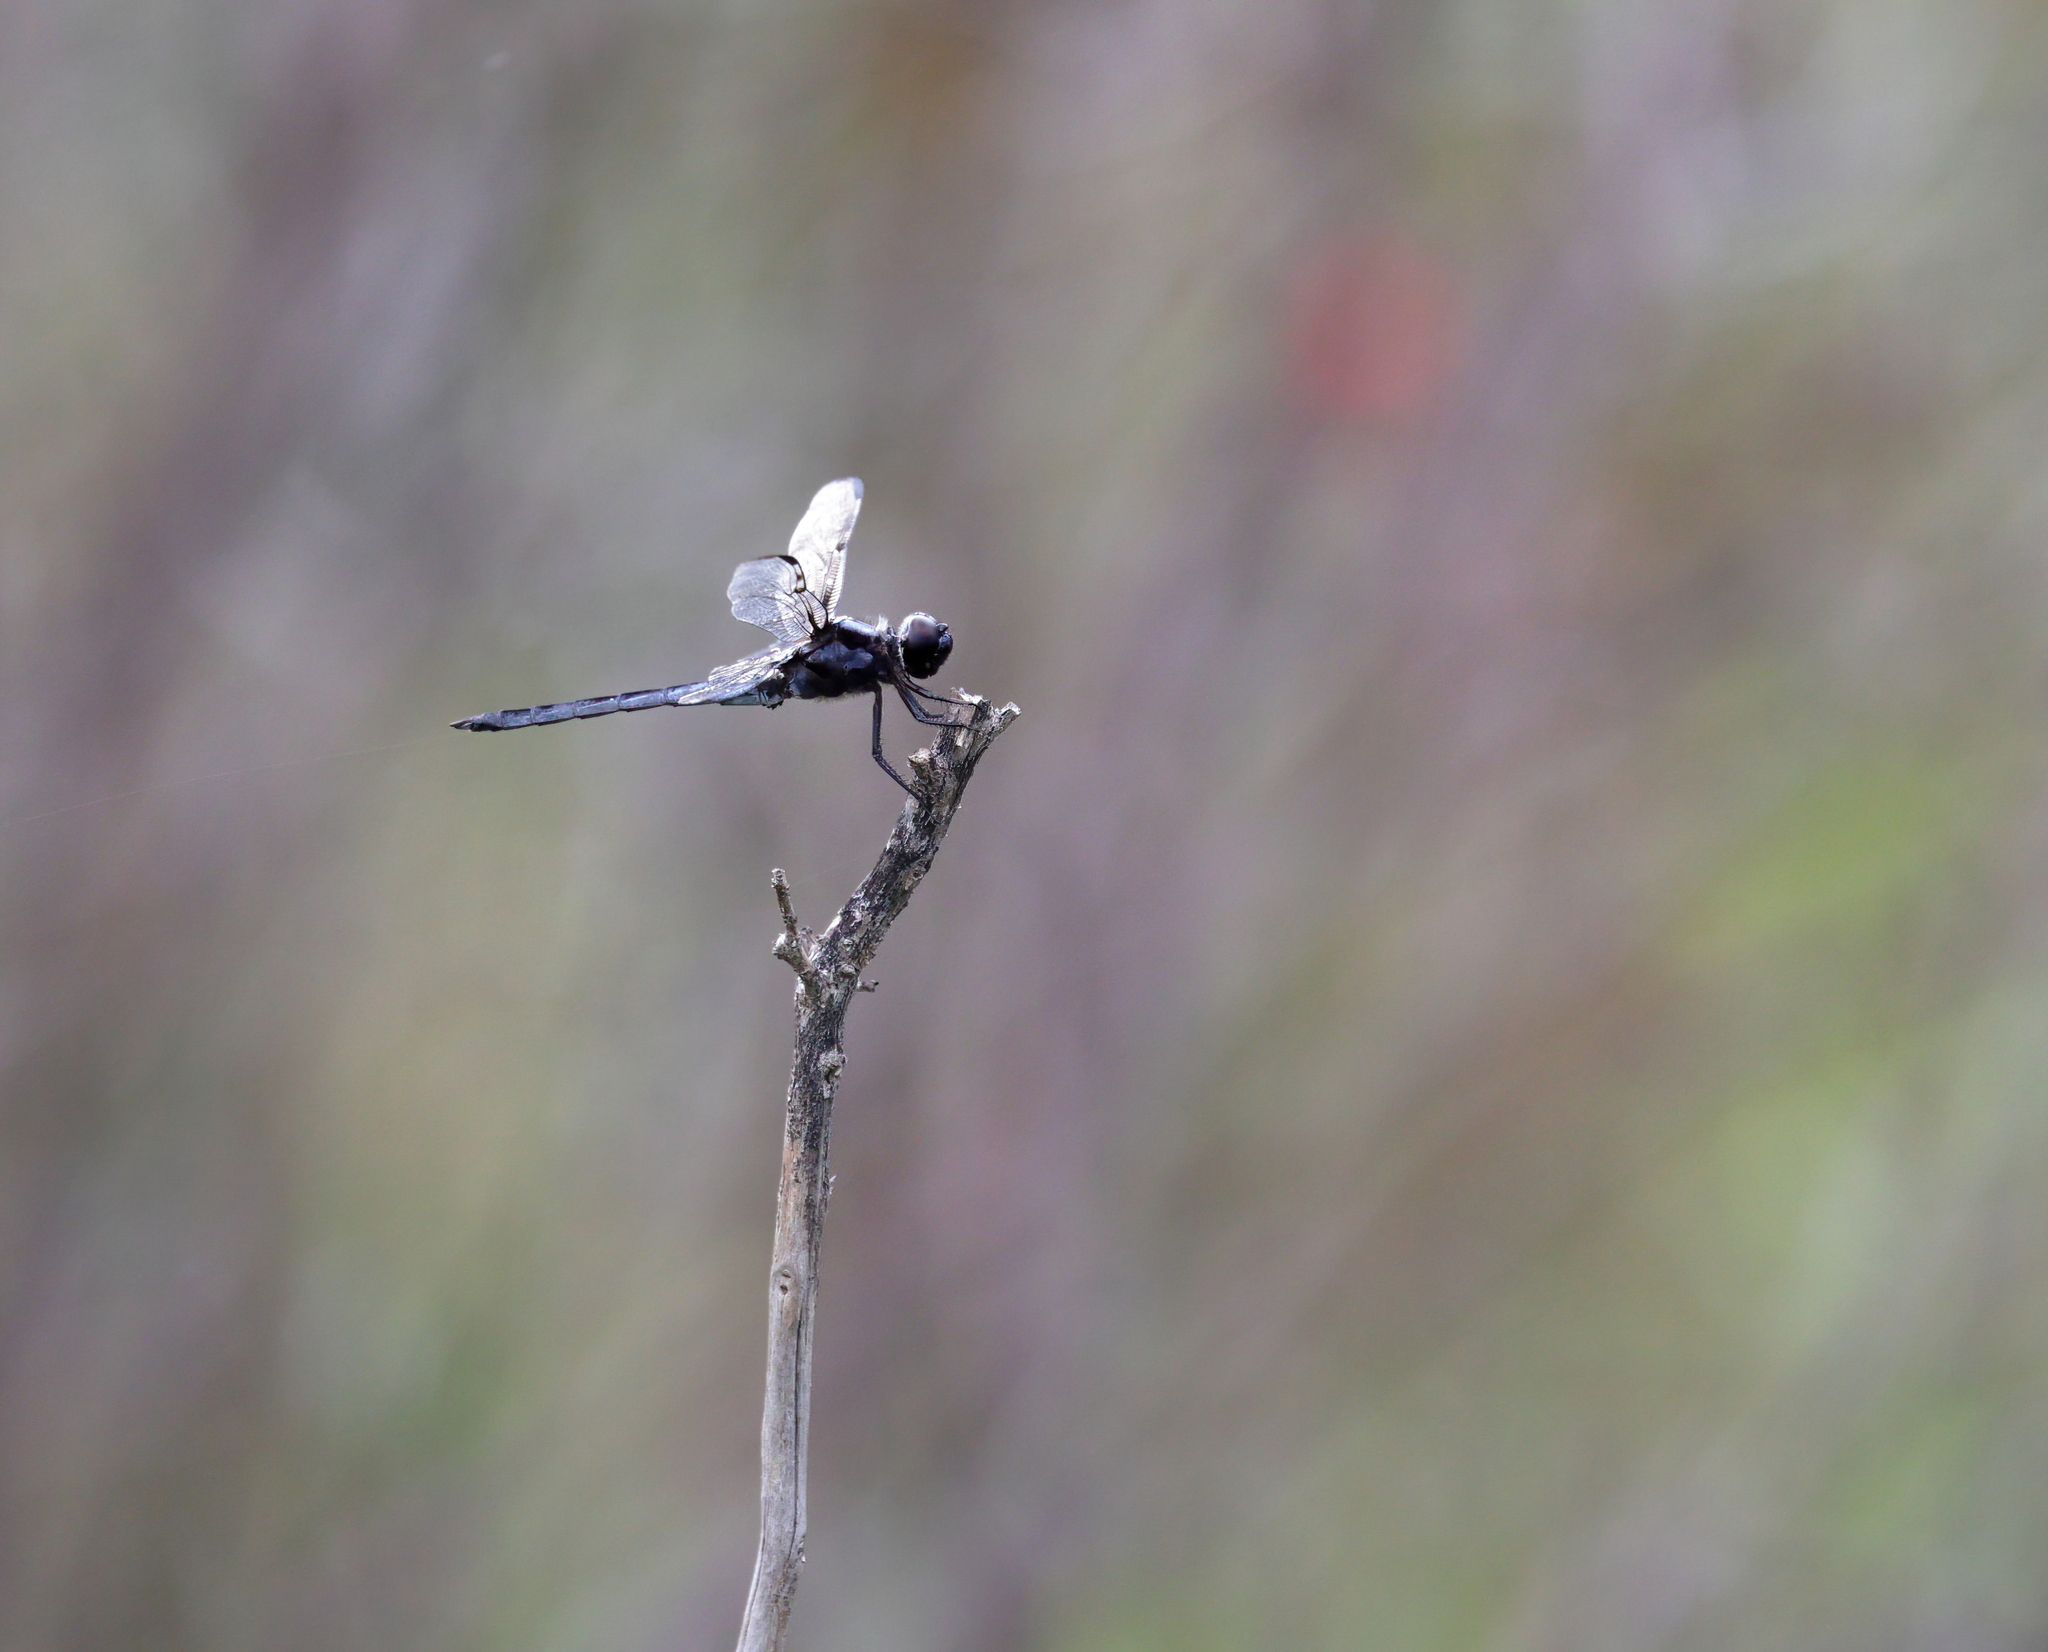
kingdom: Animalia
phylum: Arthropoda
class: Insecta
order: Odonata
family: Libellulidae
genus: Libellula
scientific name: Libellula incesta
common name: Slaty skimmer
